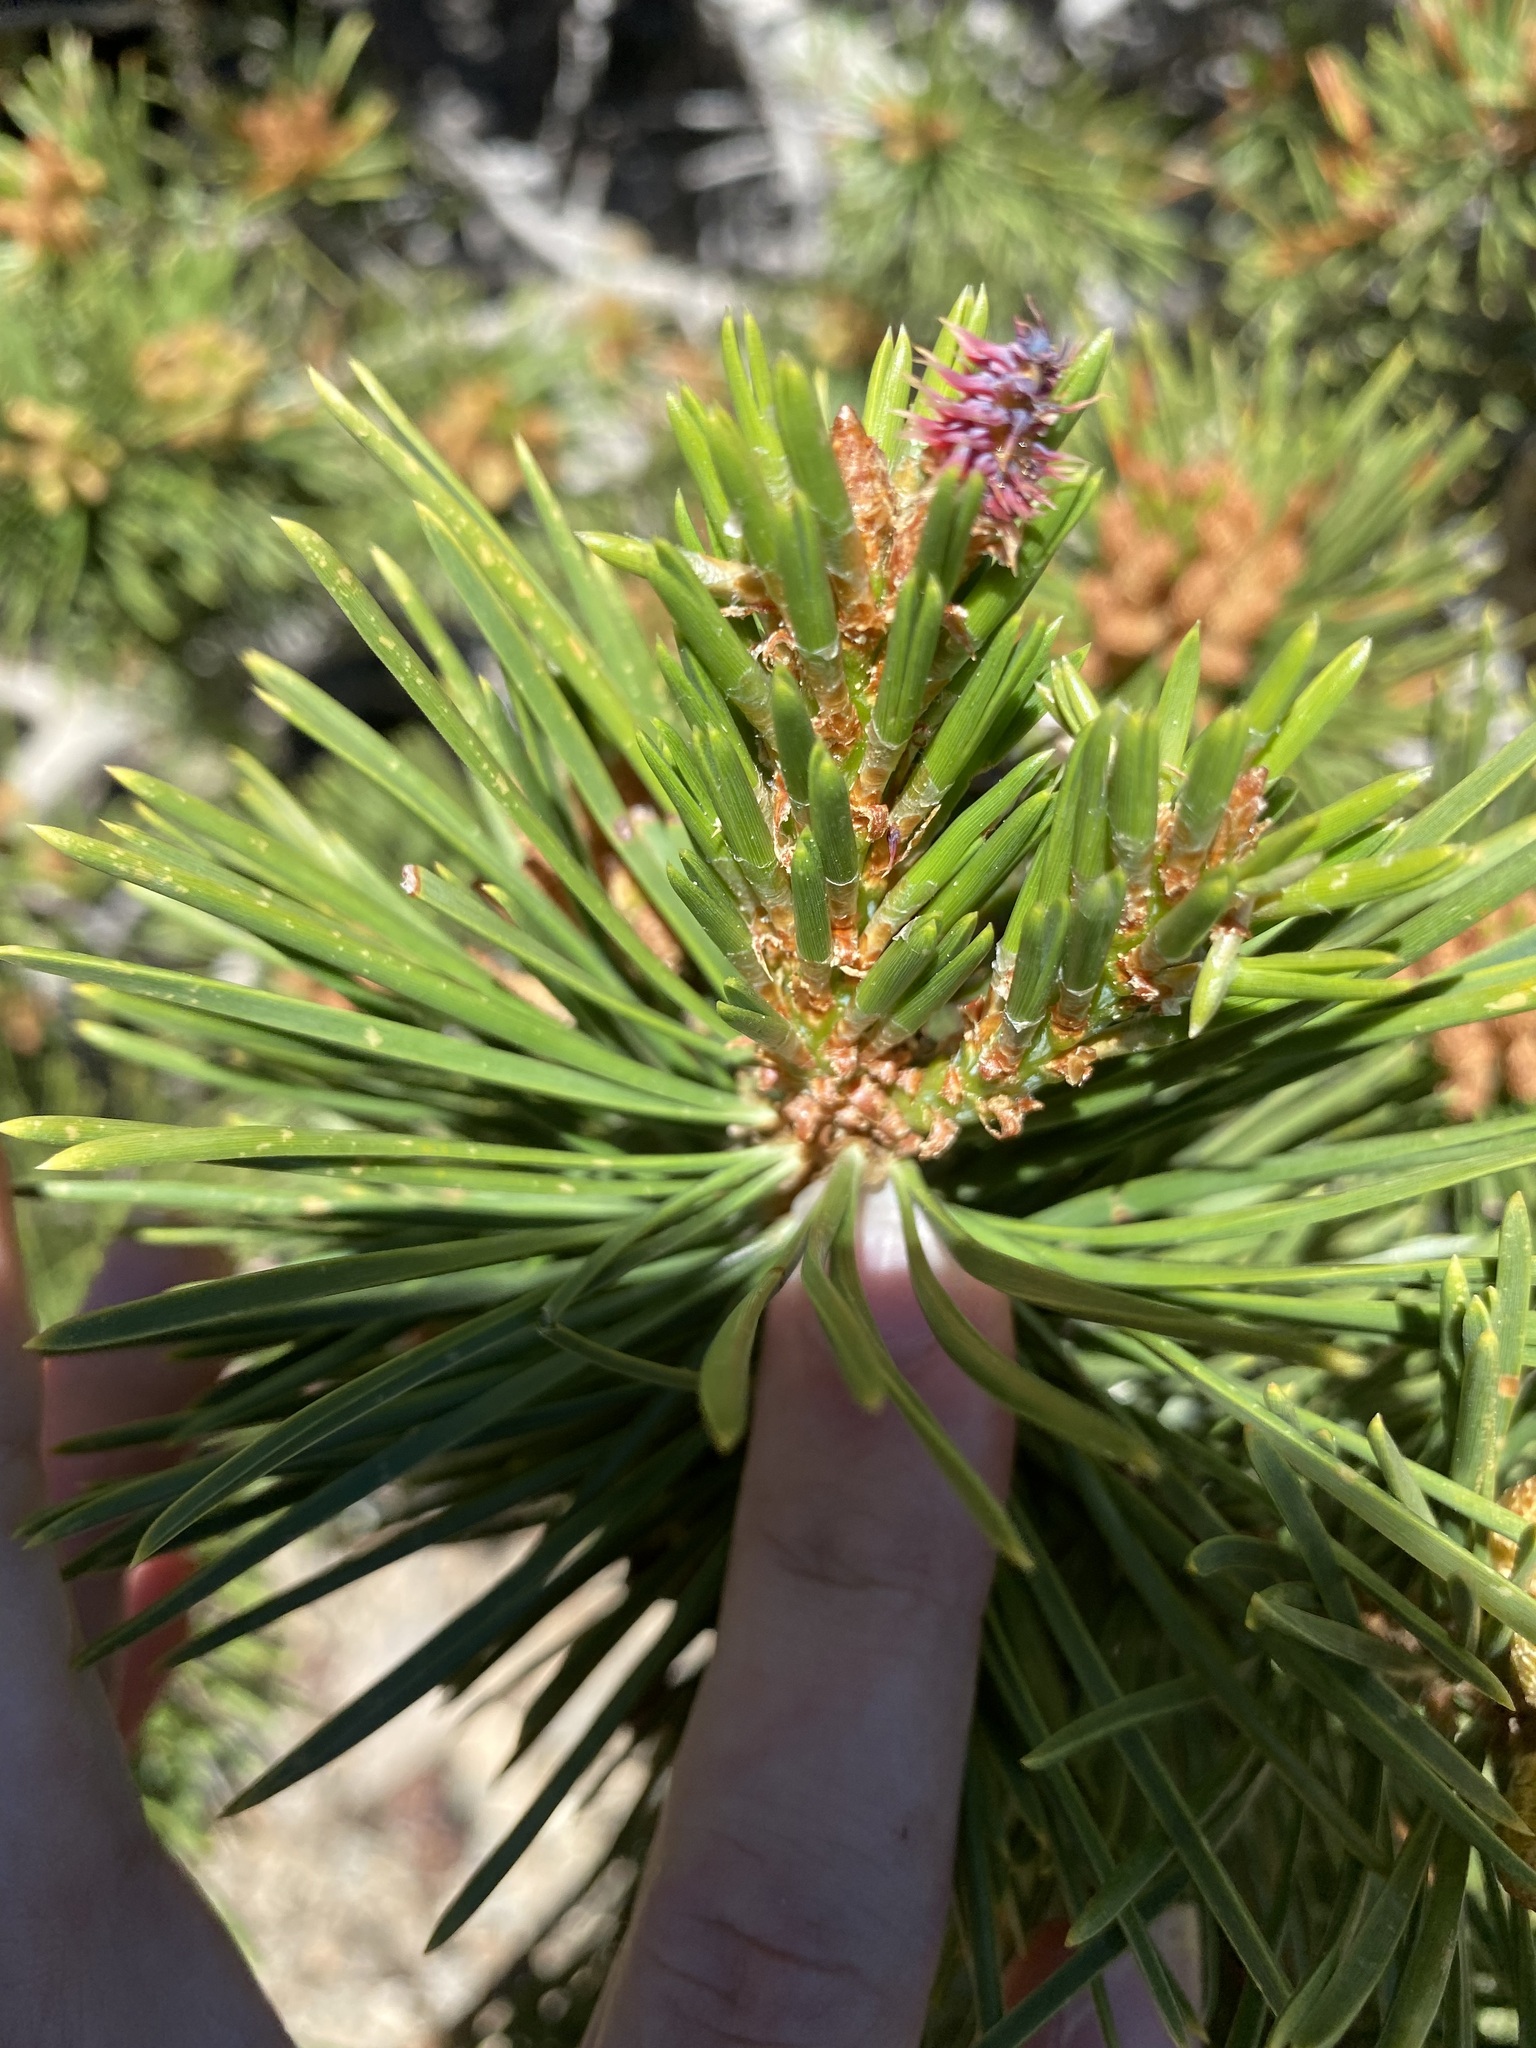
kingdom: Plantae
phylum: Tracheophyta
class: Pinopsida
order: Pinales
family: Pinaceae
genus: Pinus
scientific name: Pinus contorta
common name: Lodgepole pine
